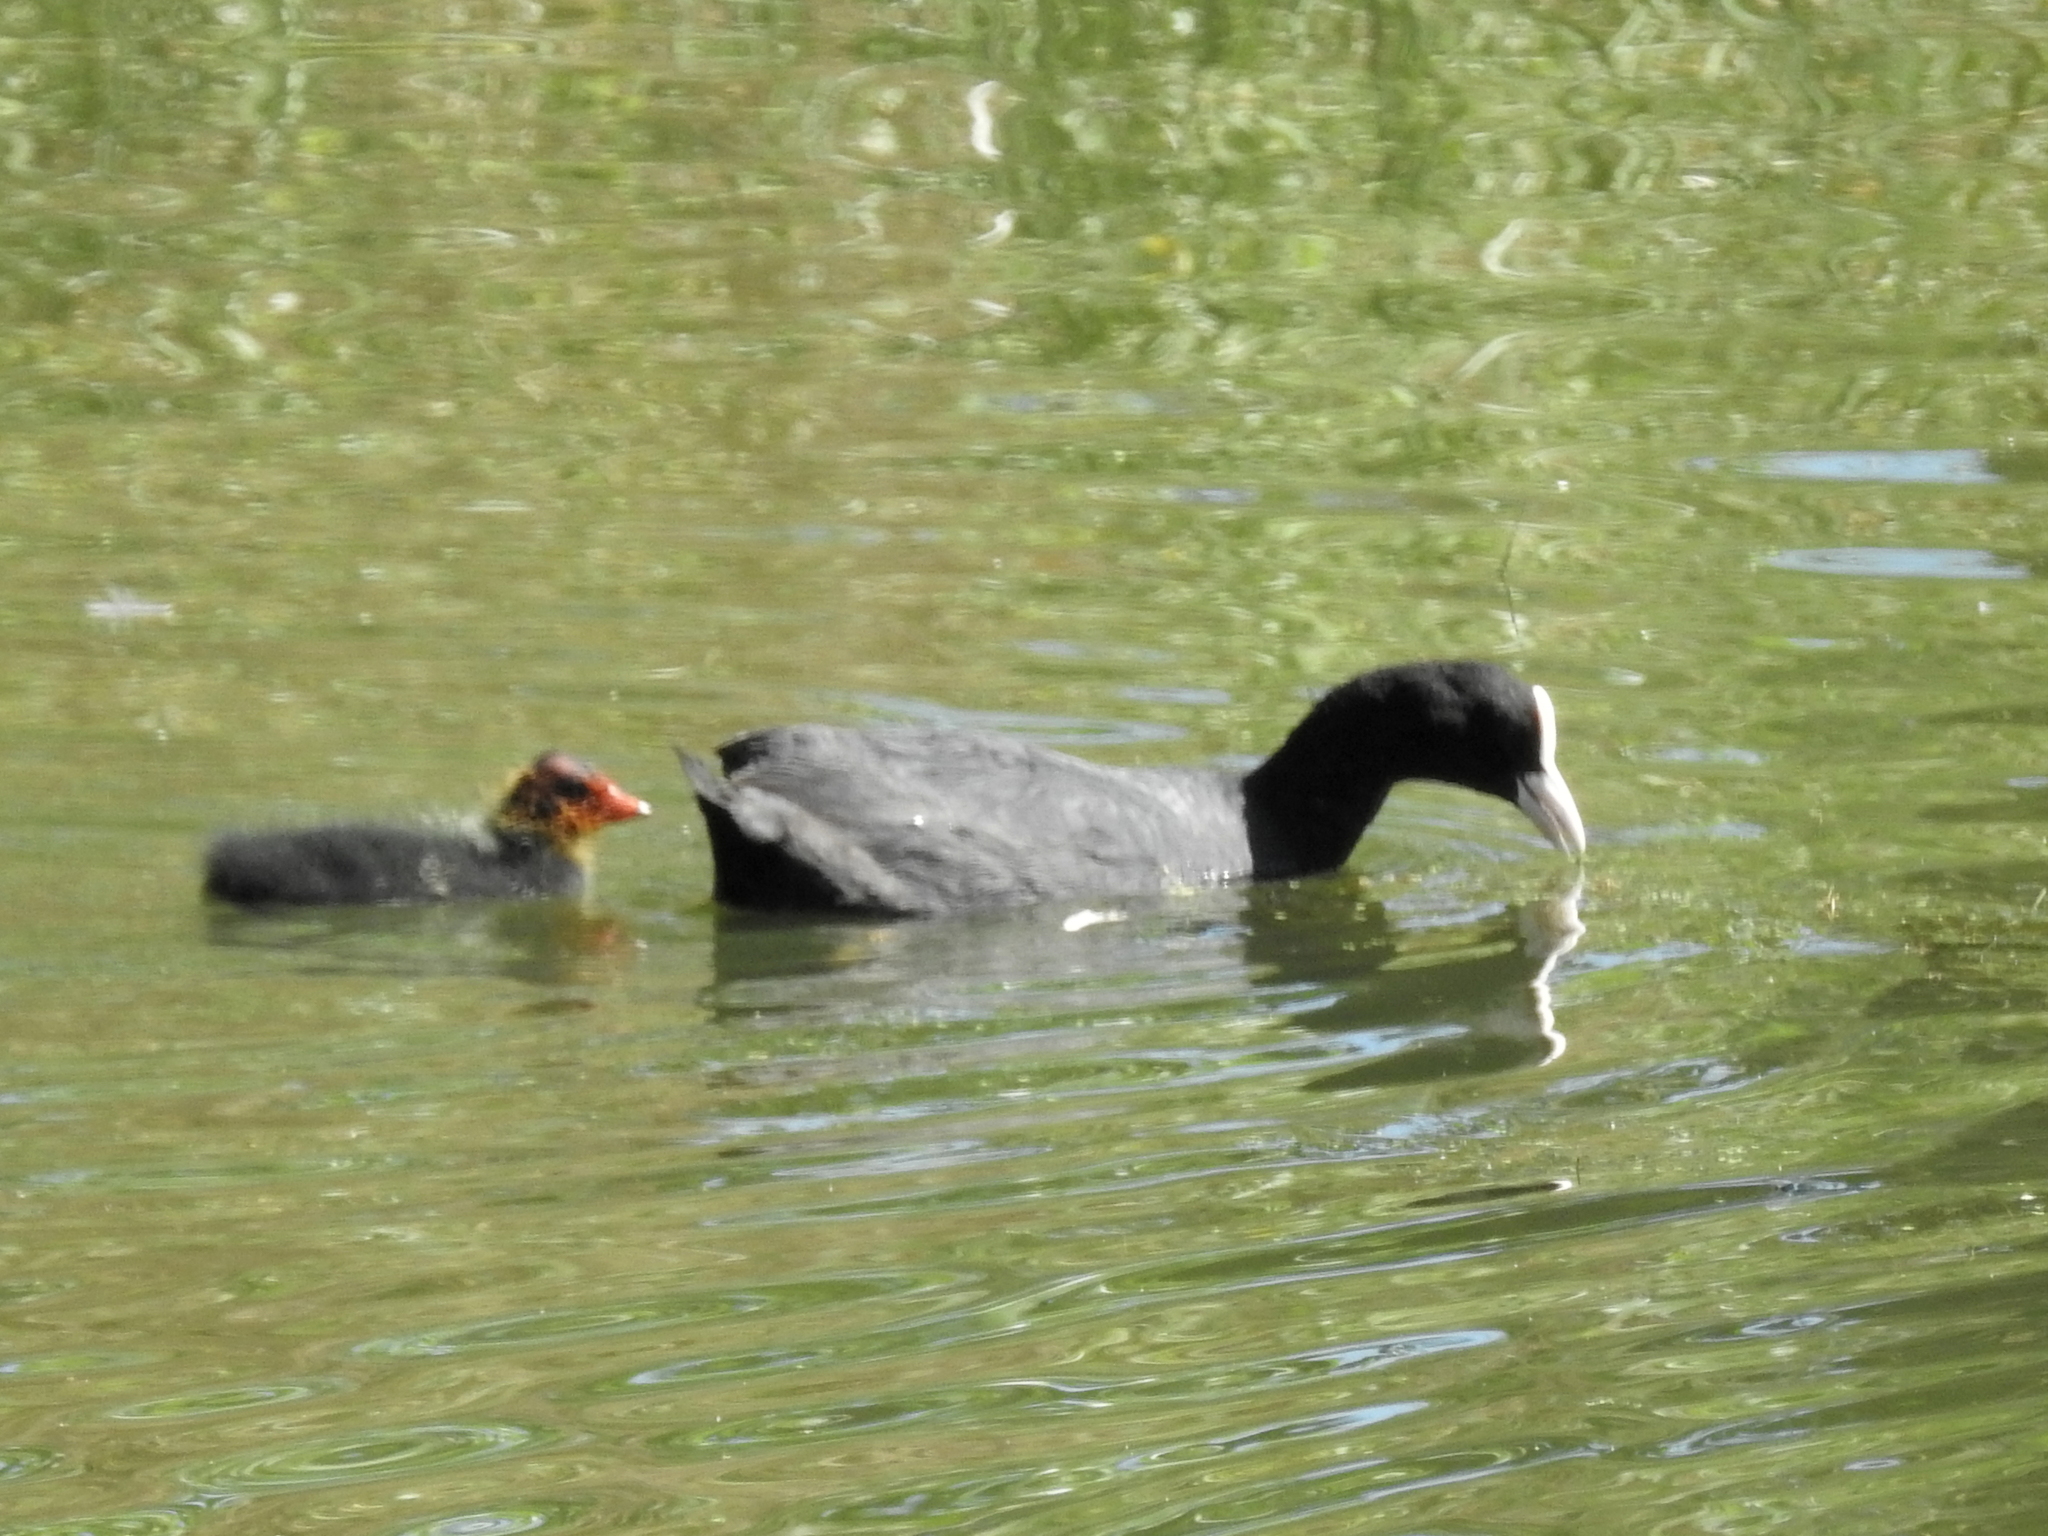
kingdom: Animalia
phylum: Chordata
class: Aves
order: Gruiformes
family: Rallidae
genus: Fulica
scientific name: Fulica atra
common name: Eurasian coot
